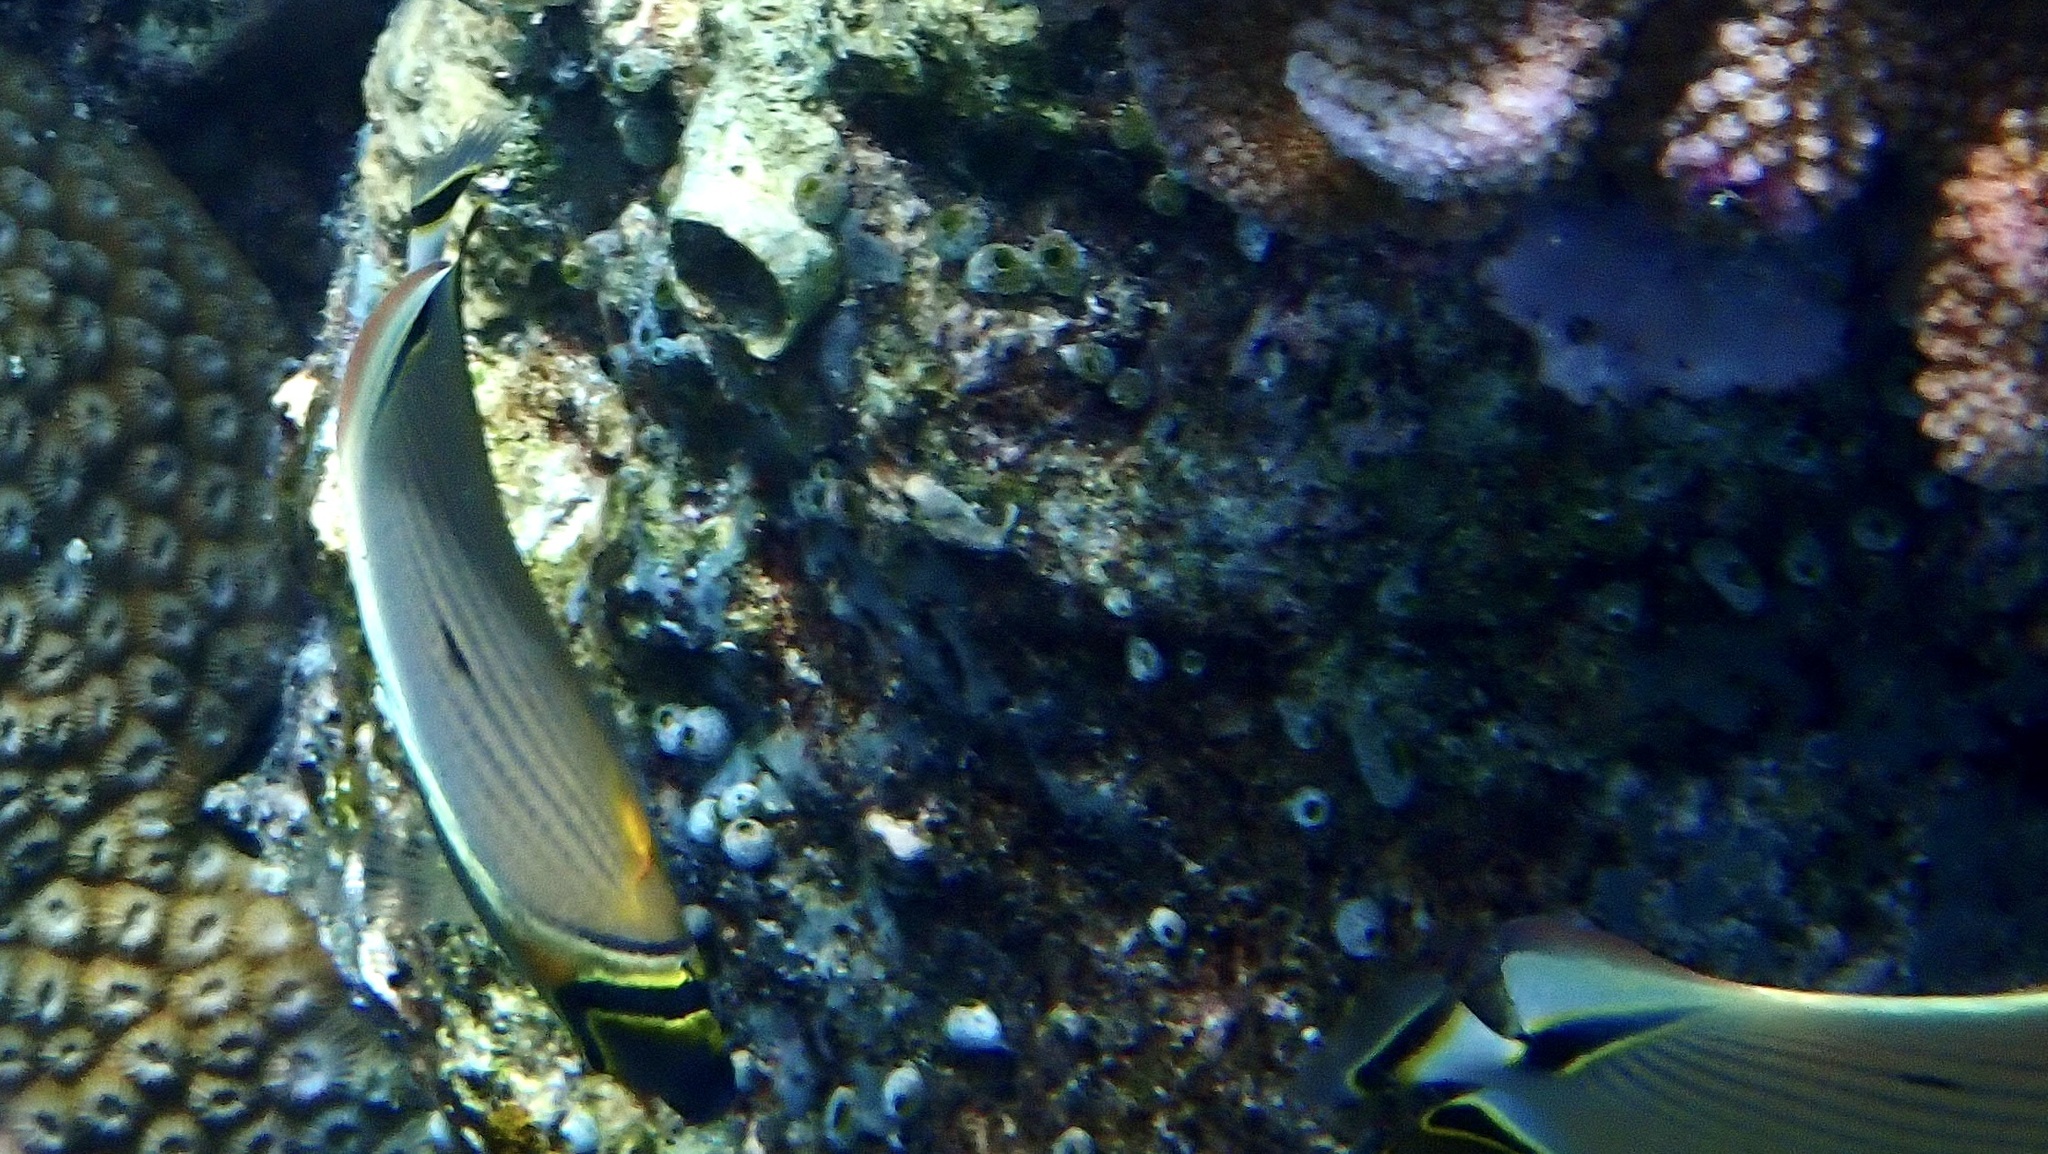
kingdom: Animalia
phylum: Chordata
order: Perciformes
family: Chaetodontidae
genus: Chaetodon
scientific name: Chaetodon lunulatus
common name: Redfin butterflyfish
